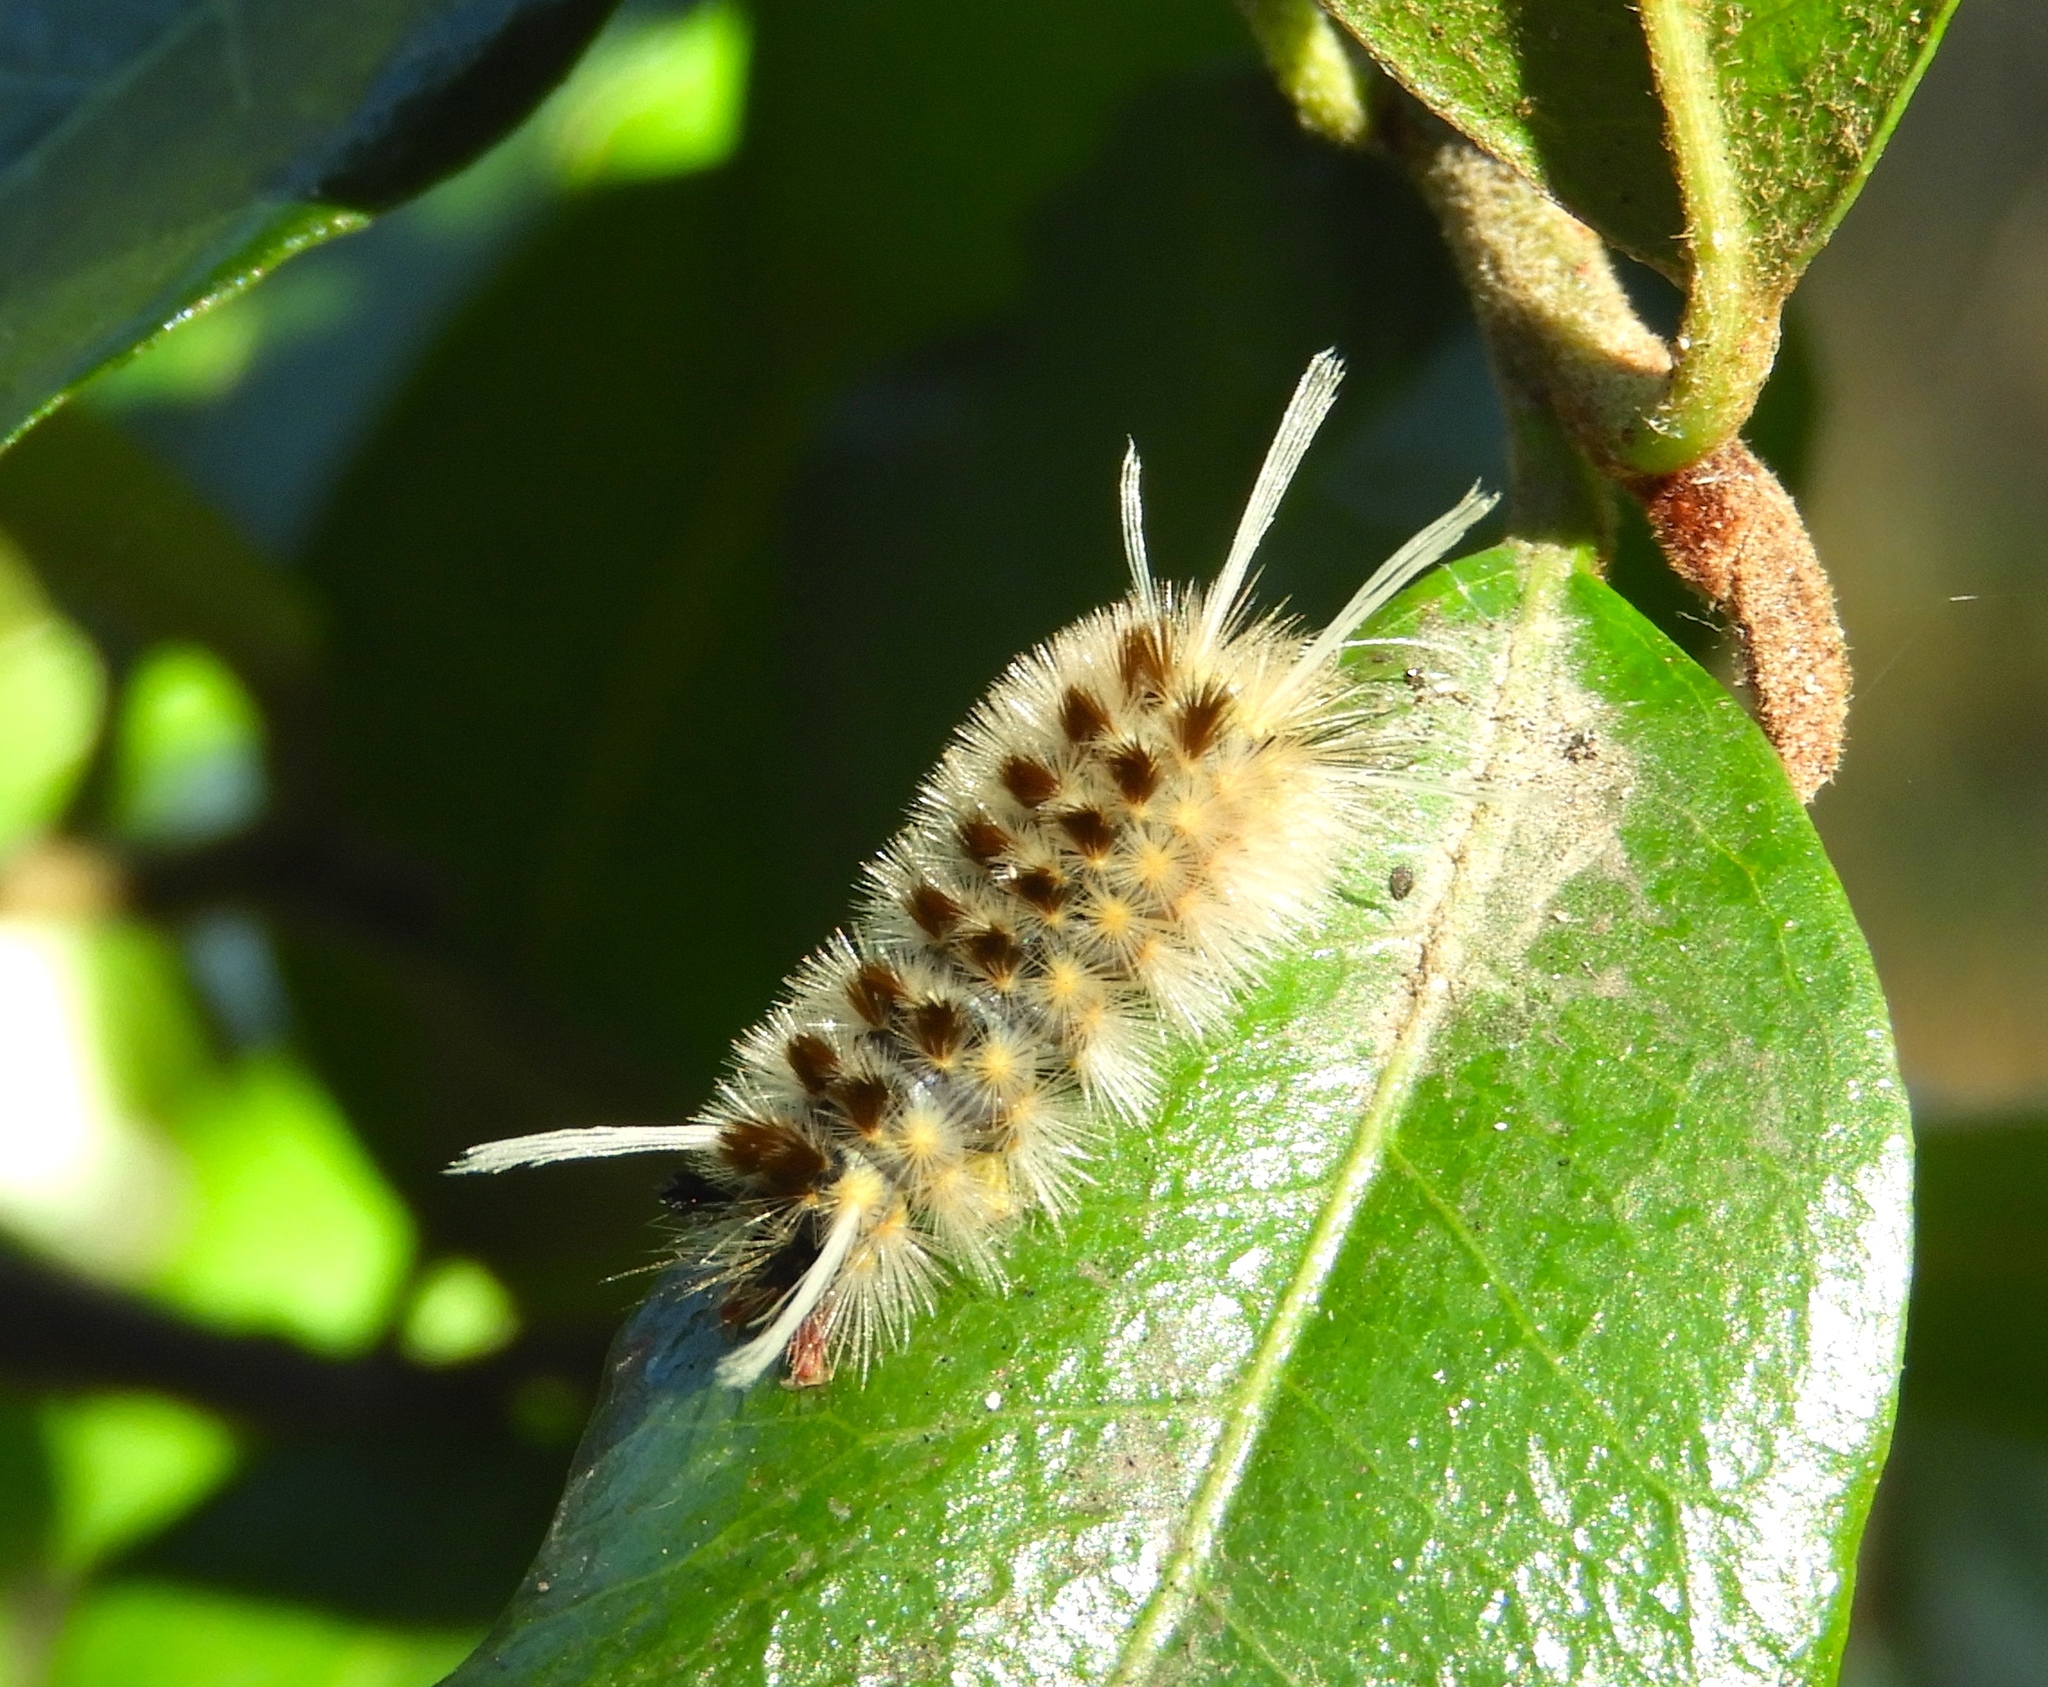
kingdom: Animalia
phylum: Arthropoda
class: Insecta
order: Lepidoptera
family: Erebidae
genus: Lophocampa
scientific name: Lophocampa
